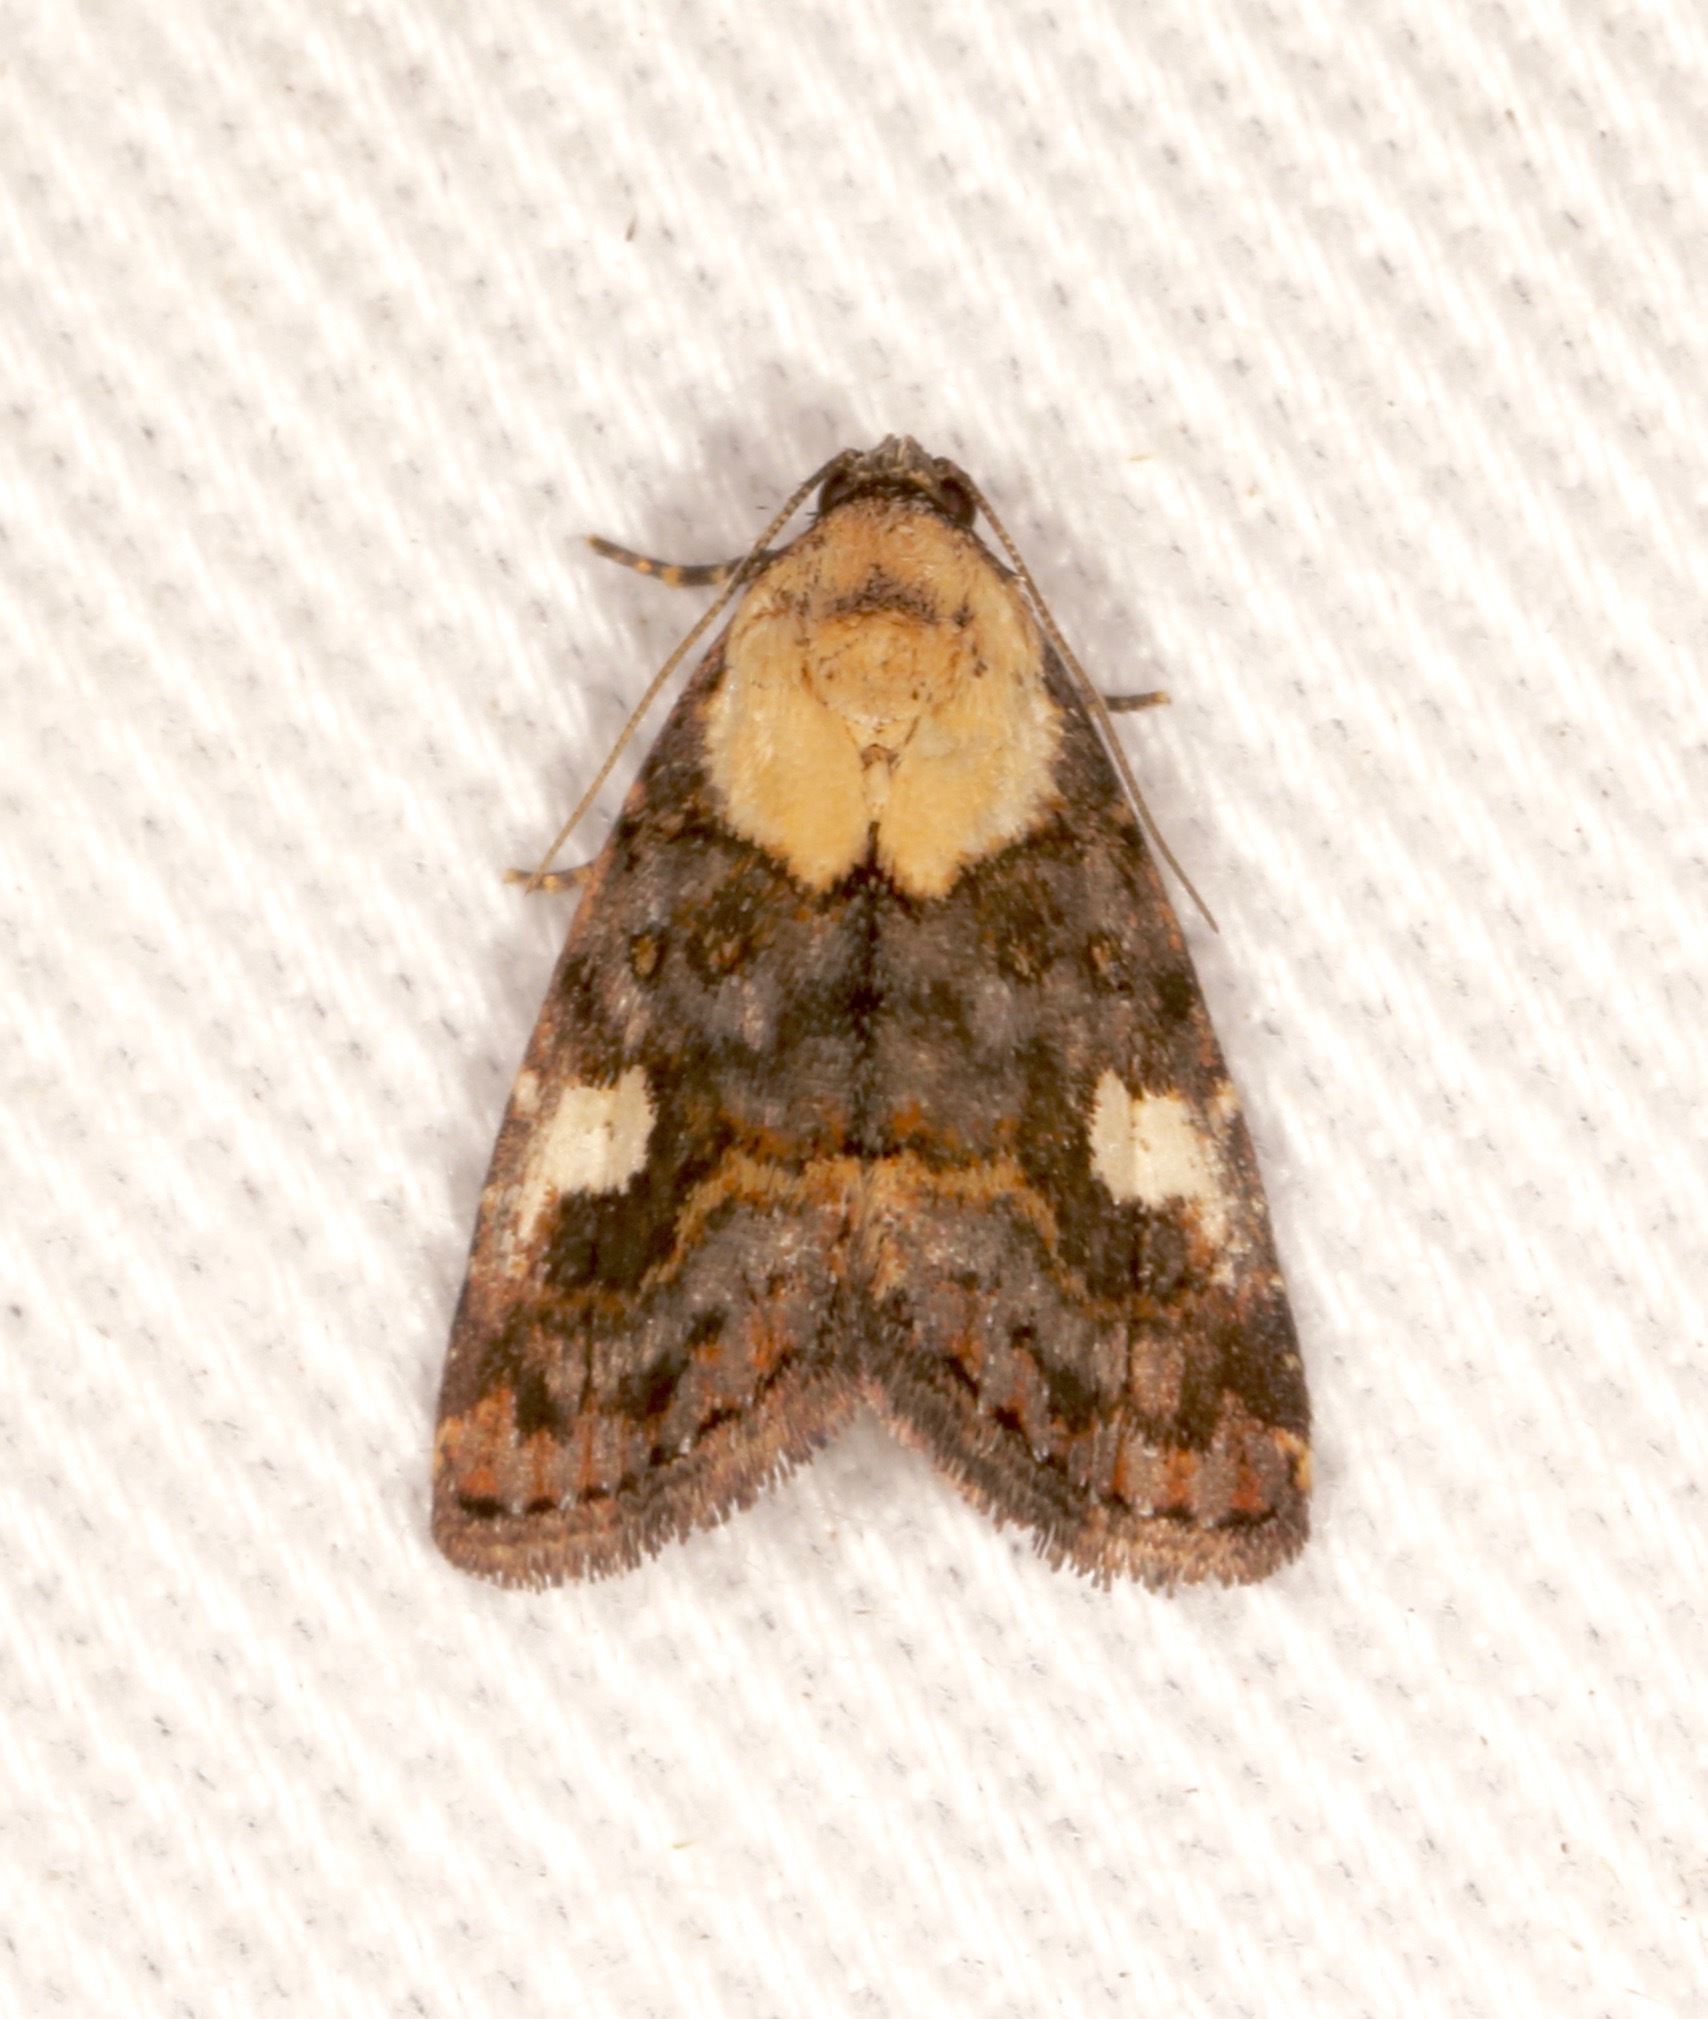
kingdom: Animalia
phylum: Arthropoda
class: Insecta
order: Lepidoptera
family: Noctuidae
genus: Lithacodia
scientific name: Lithacodia phya
